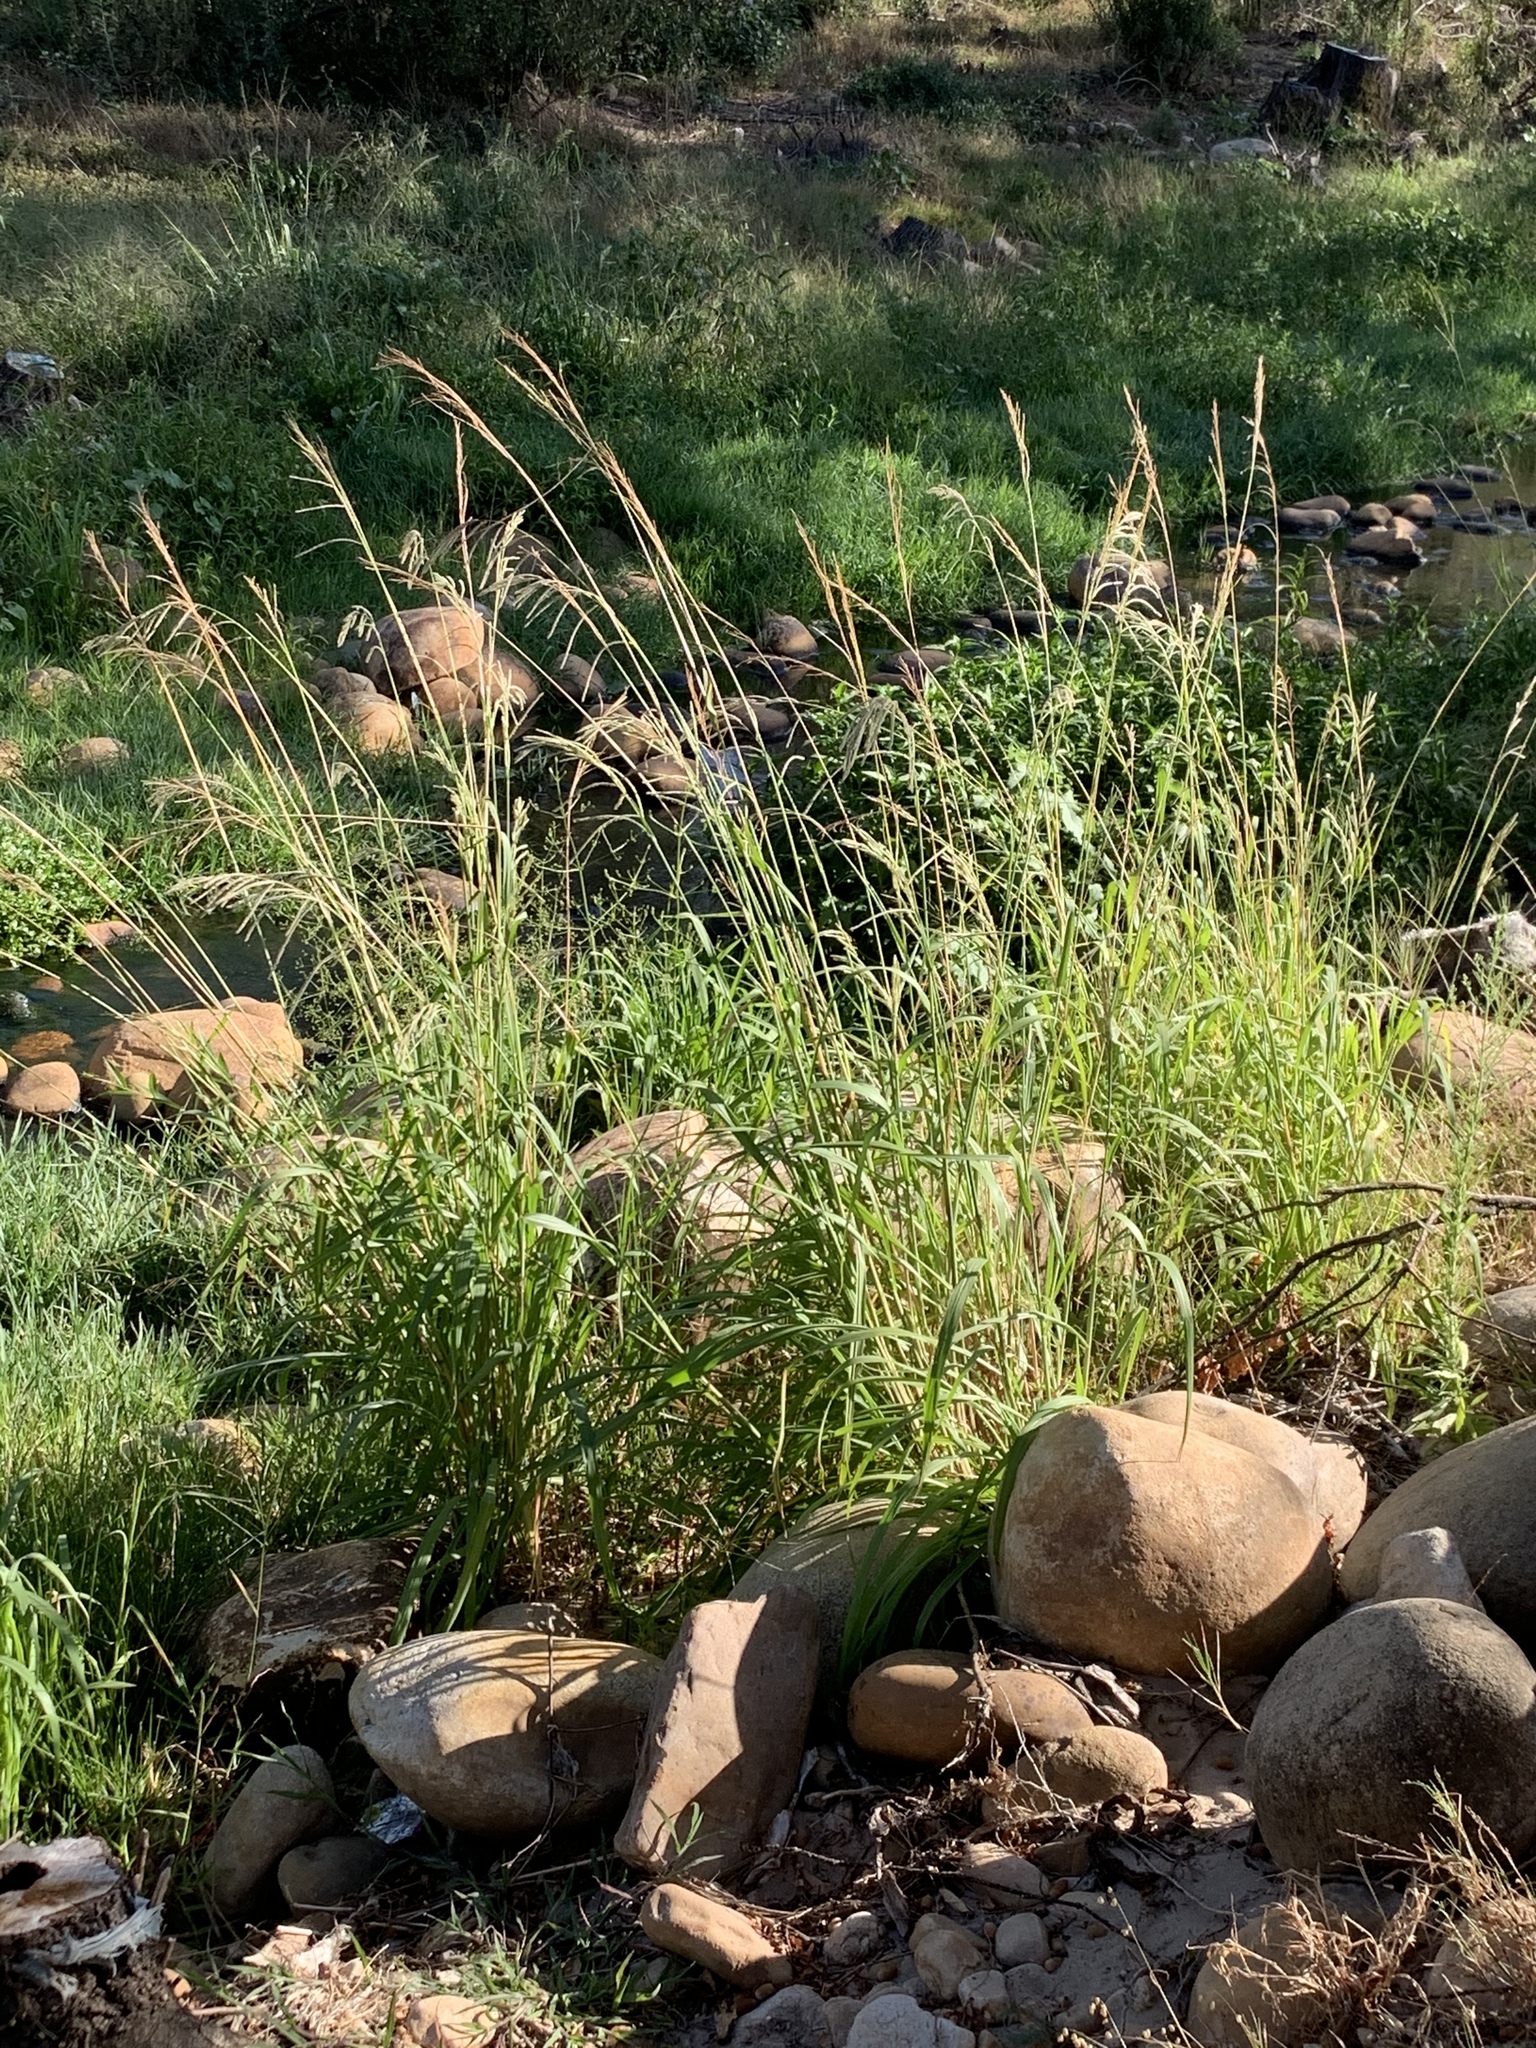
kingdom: Plantae
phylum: Tracheophyta
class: Liliopsida
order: Poales
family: Poaceae
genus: Paspalum
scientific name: Paspalum urvillei
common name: Vasey's grass
